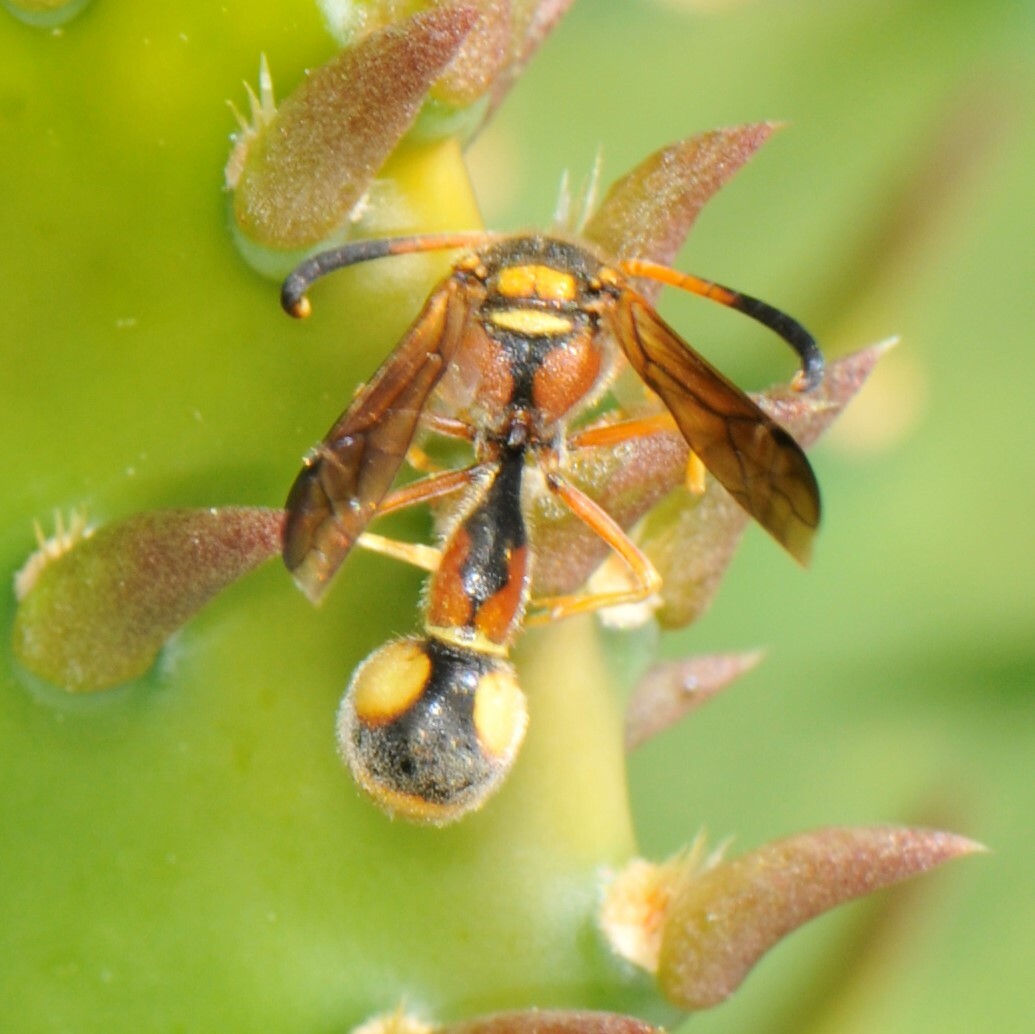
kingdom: Animalia
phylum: Arthropoda
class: Insecta
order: Hymenoptera
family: Vespidae
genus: Eumenes
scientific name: Eumenes bollii
